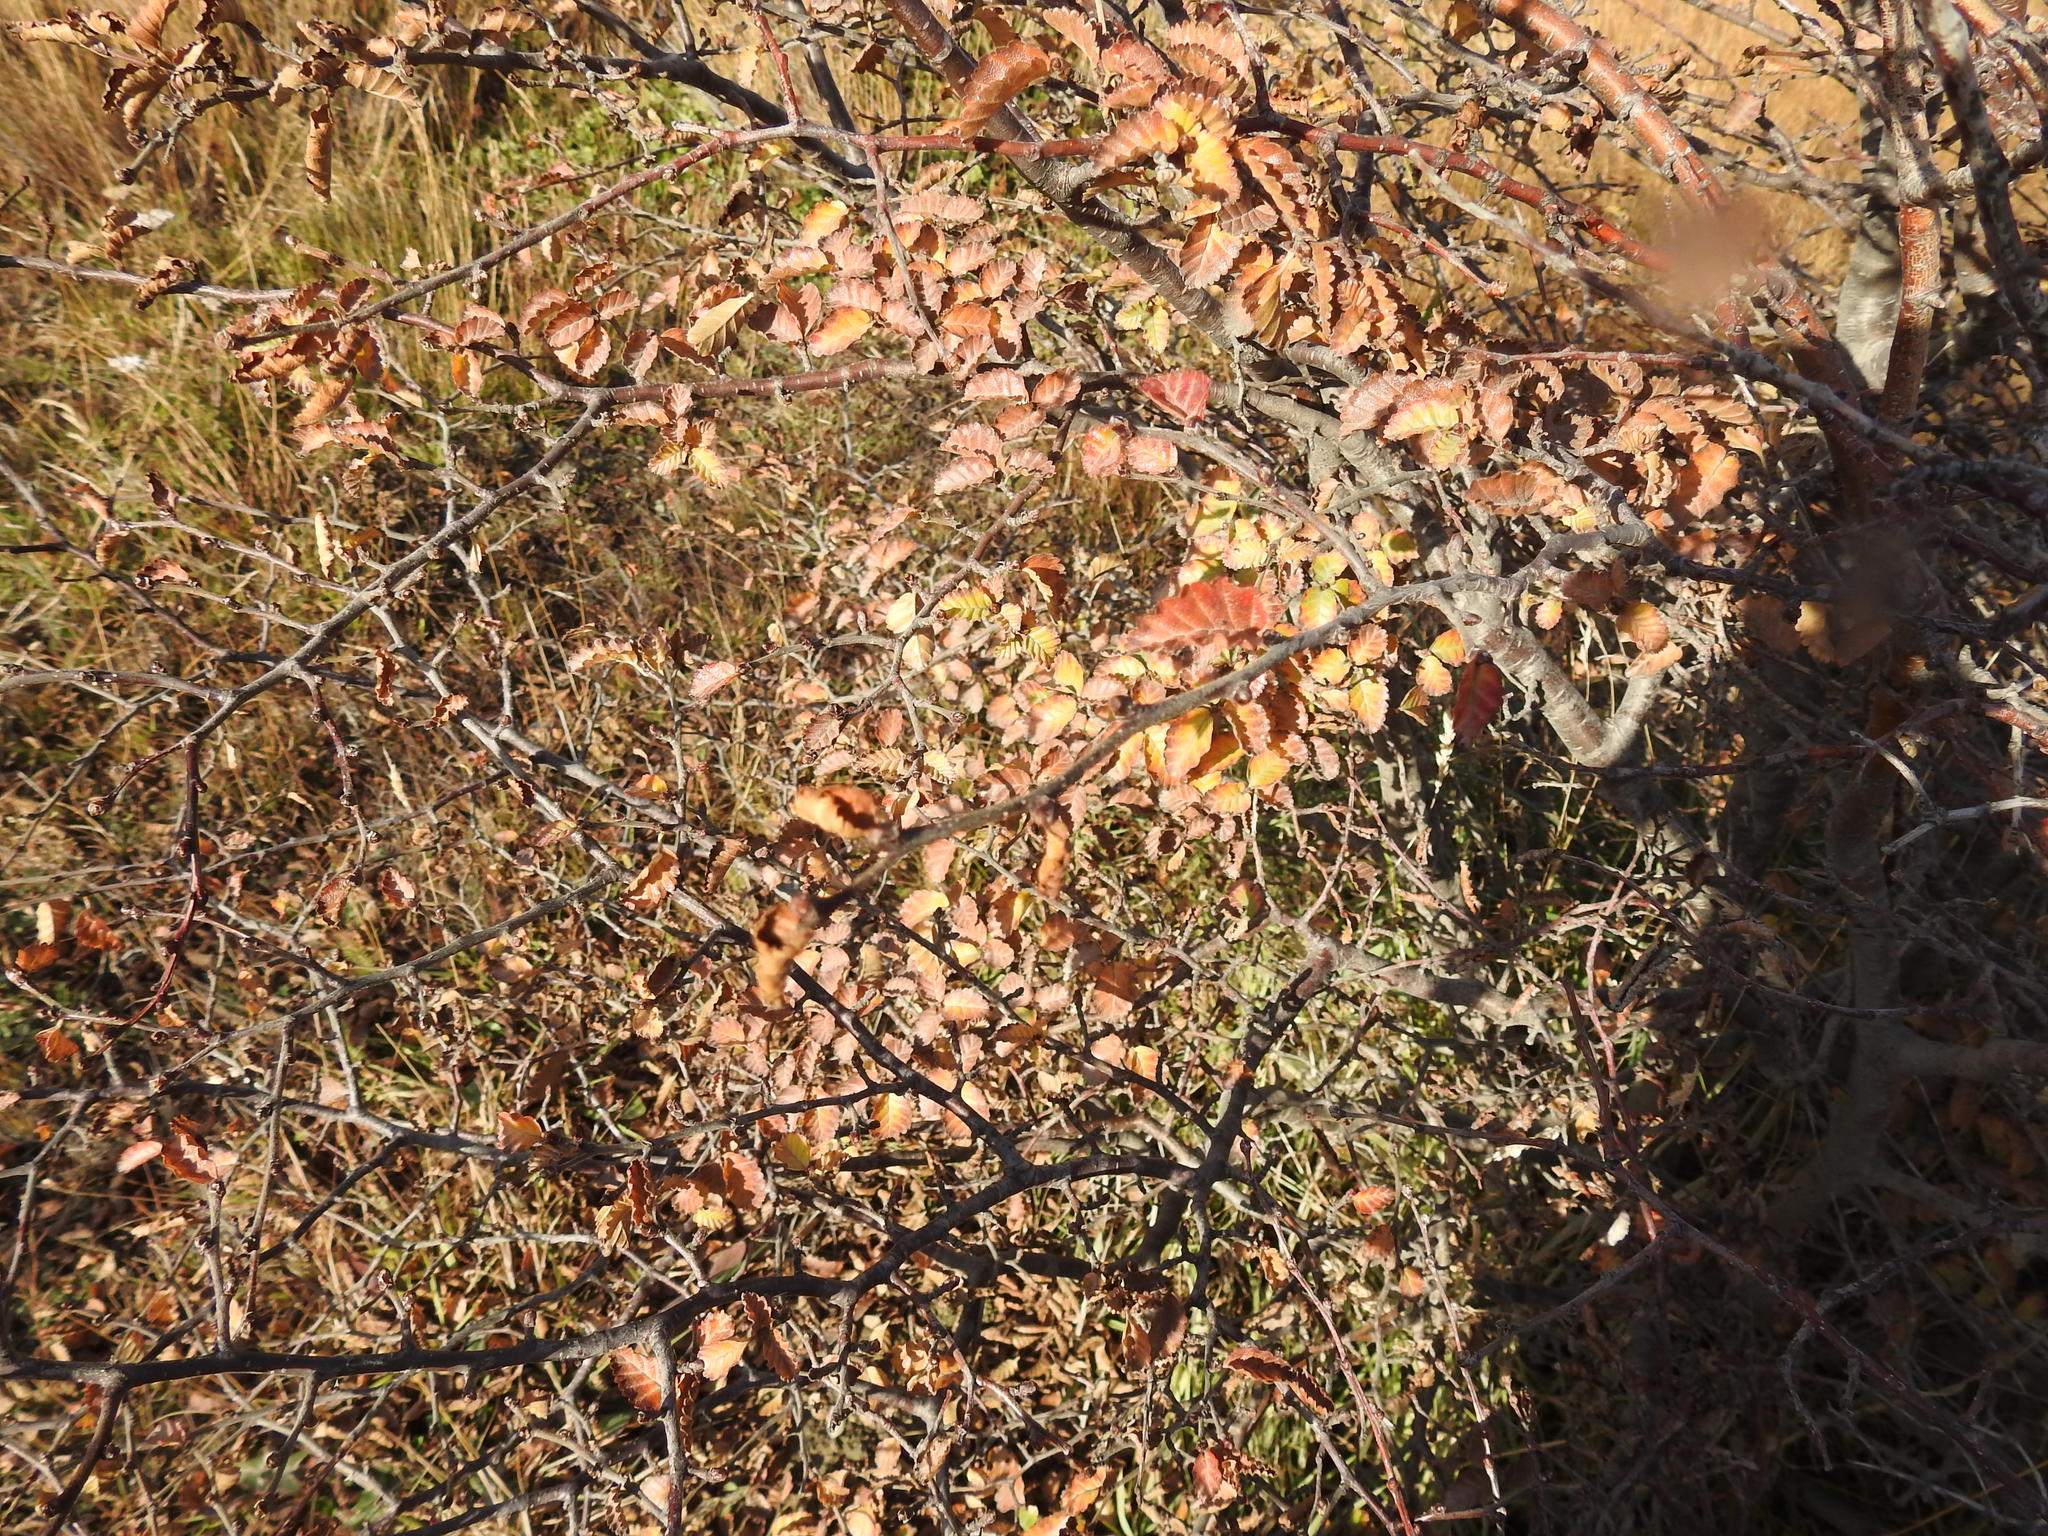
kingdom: Plantae
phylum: Tracheophyta
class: Magnoliopsida
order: Fagales
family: Nothofagaceae
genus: Nothofagus
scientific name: Nothofagus pumilio
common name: Lenga beech
